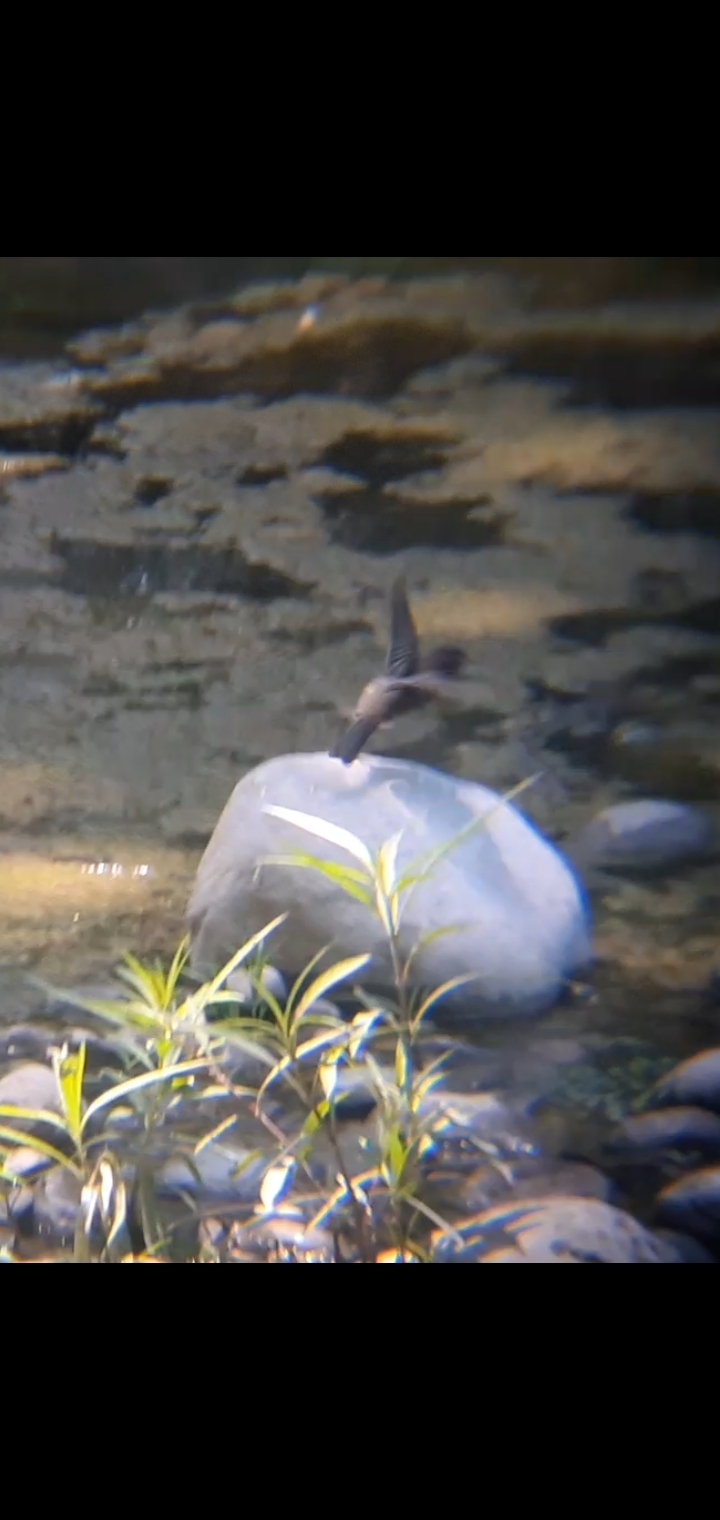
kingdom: Animalia
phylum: Chordata
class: Aves
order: Passeriformes
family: Tyrannidae
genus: Sayornis
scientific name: Sayornis nigricans
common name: Black phoebe
